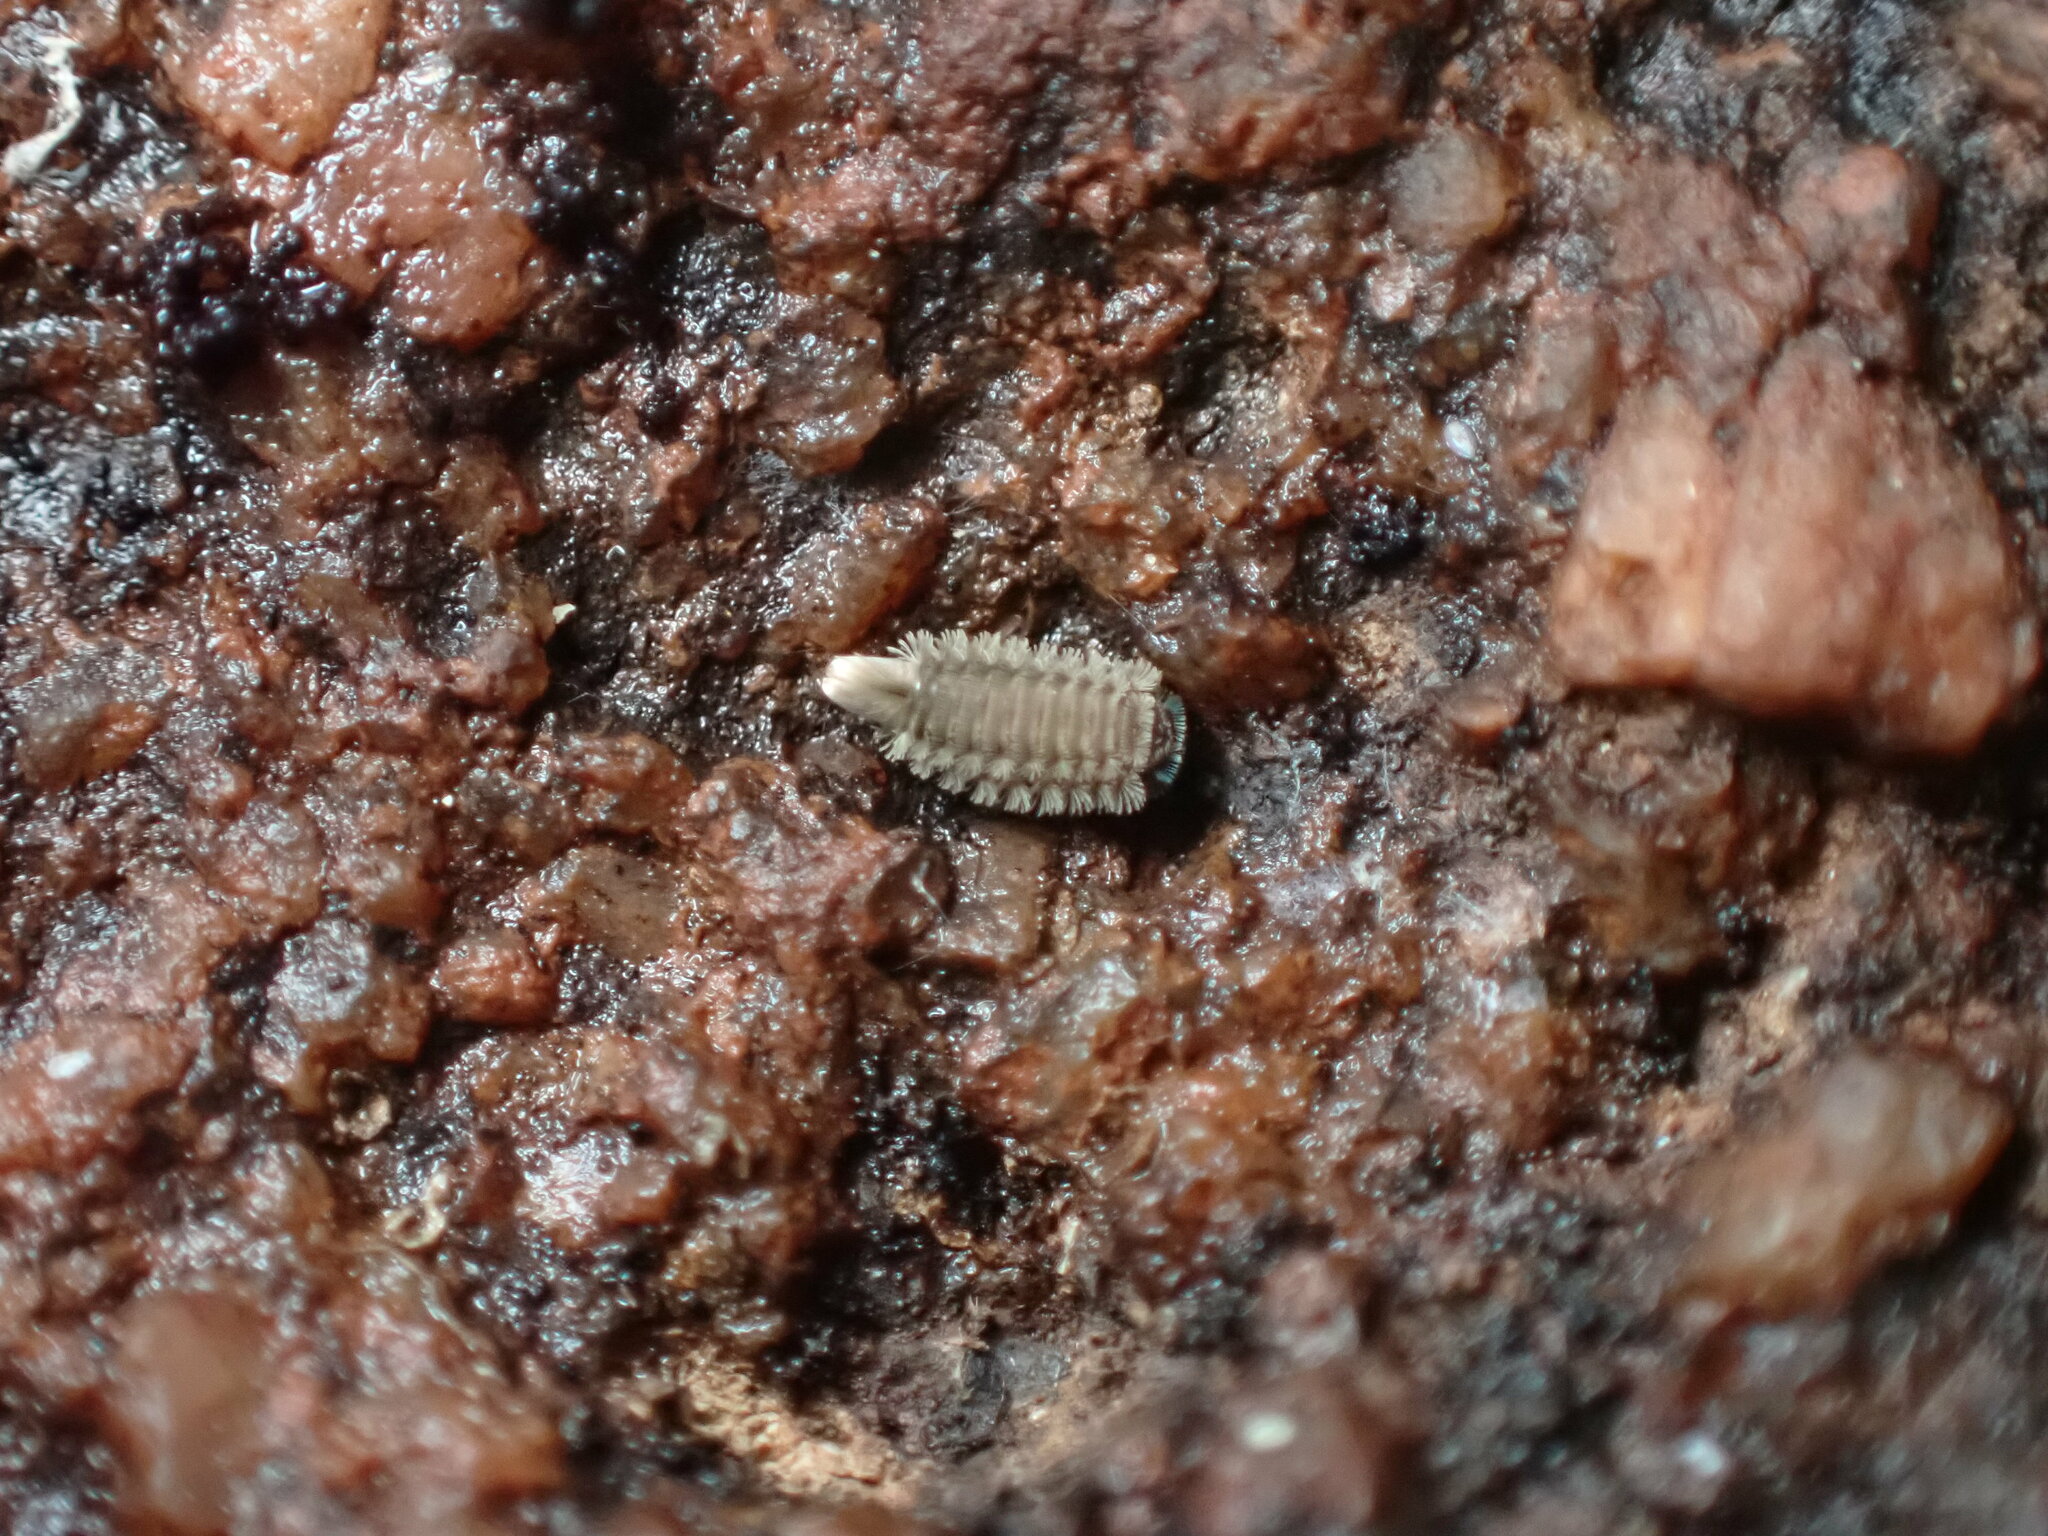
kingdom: Animalia
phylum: Arthropoda
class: Diplopoda
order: Polyxenida
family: Polyxenidae
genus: Polyxenus
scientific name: Polyxenus lagurus
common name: Bristly millipede
